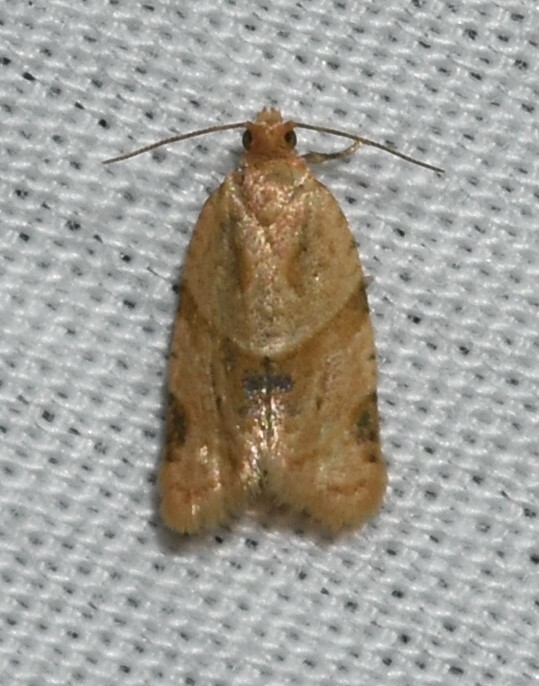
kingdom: Animalia
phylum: Arthropoda
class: Insecta
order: Lepidoptera
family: Tortricidae
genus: Clepsis
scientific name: Clepsis peritana
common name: Garden tortrix
